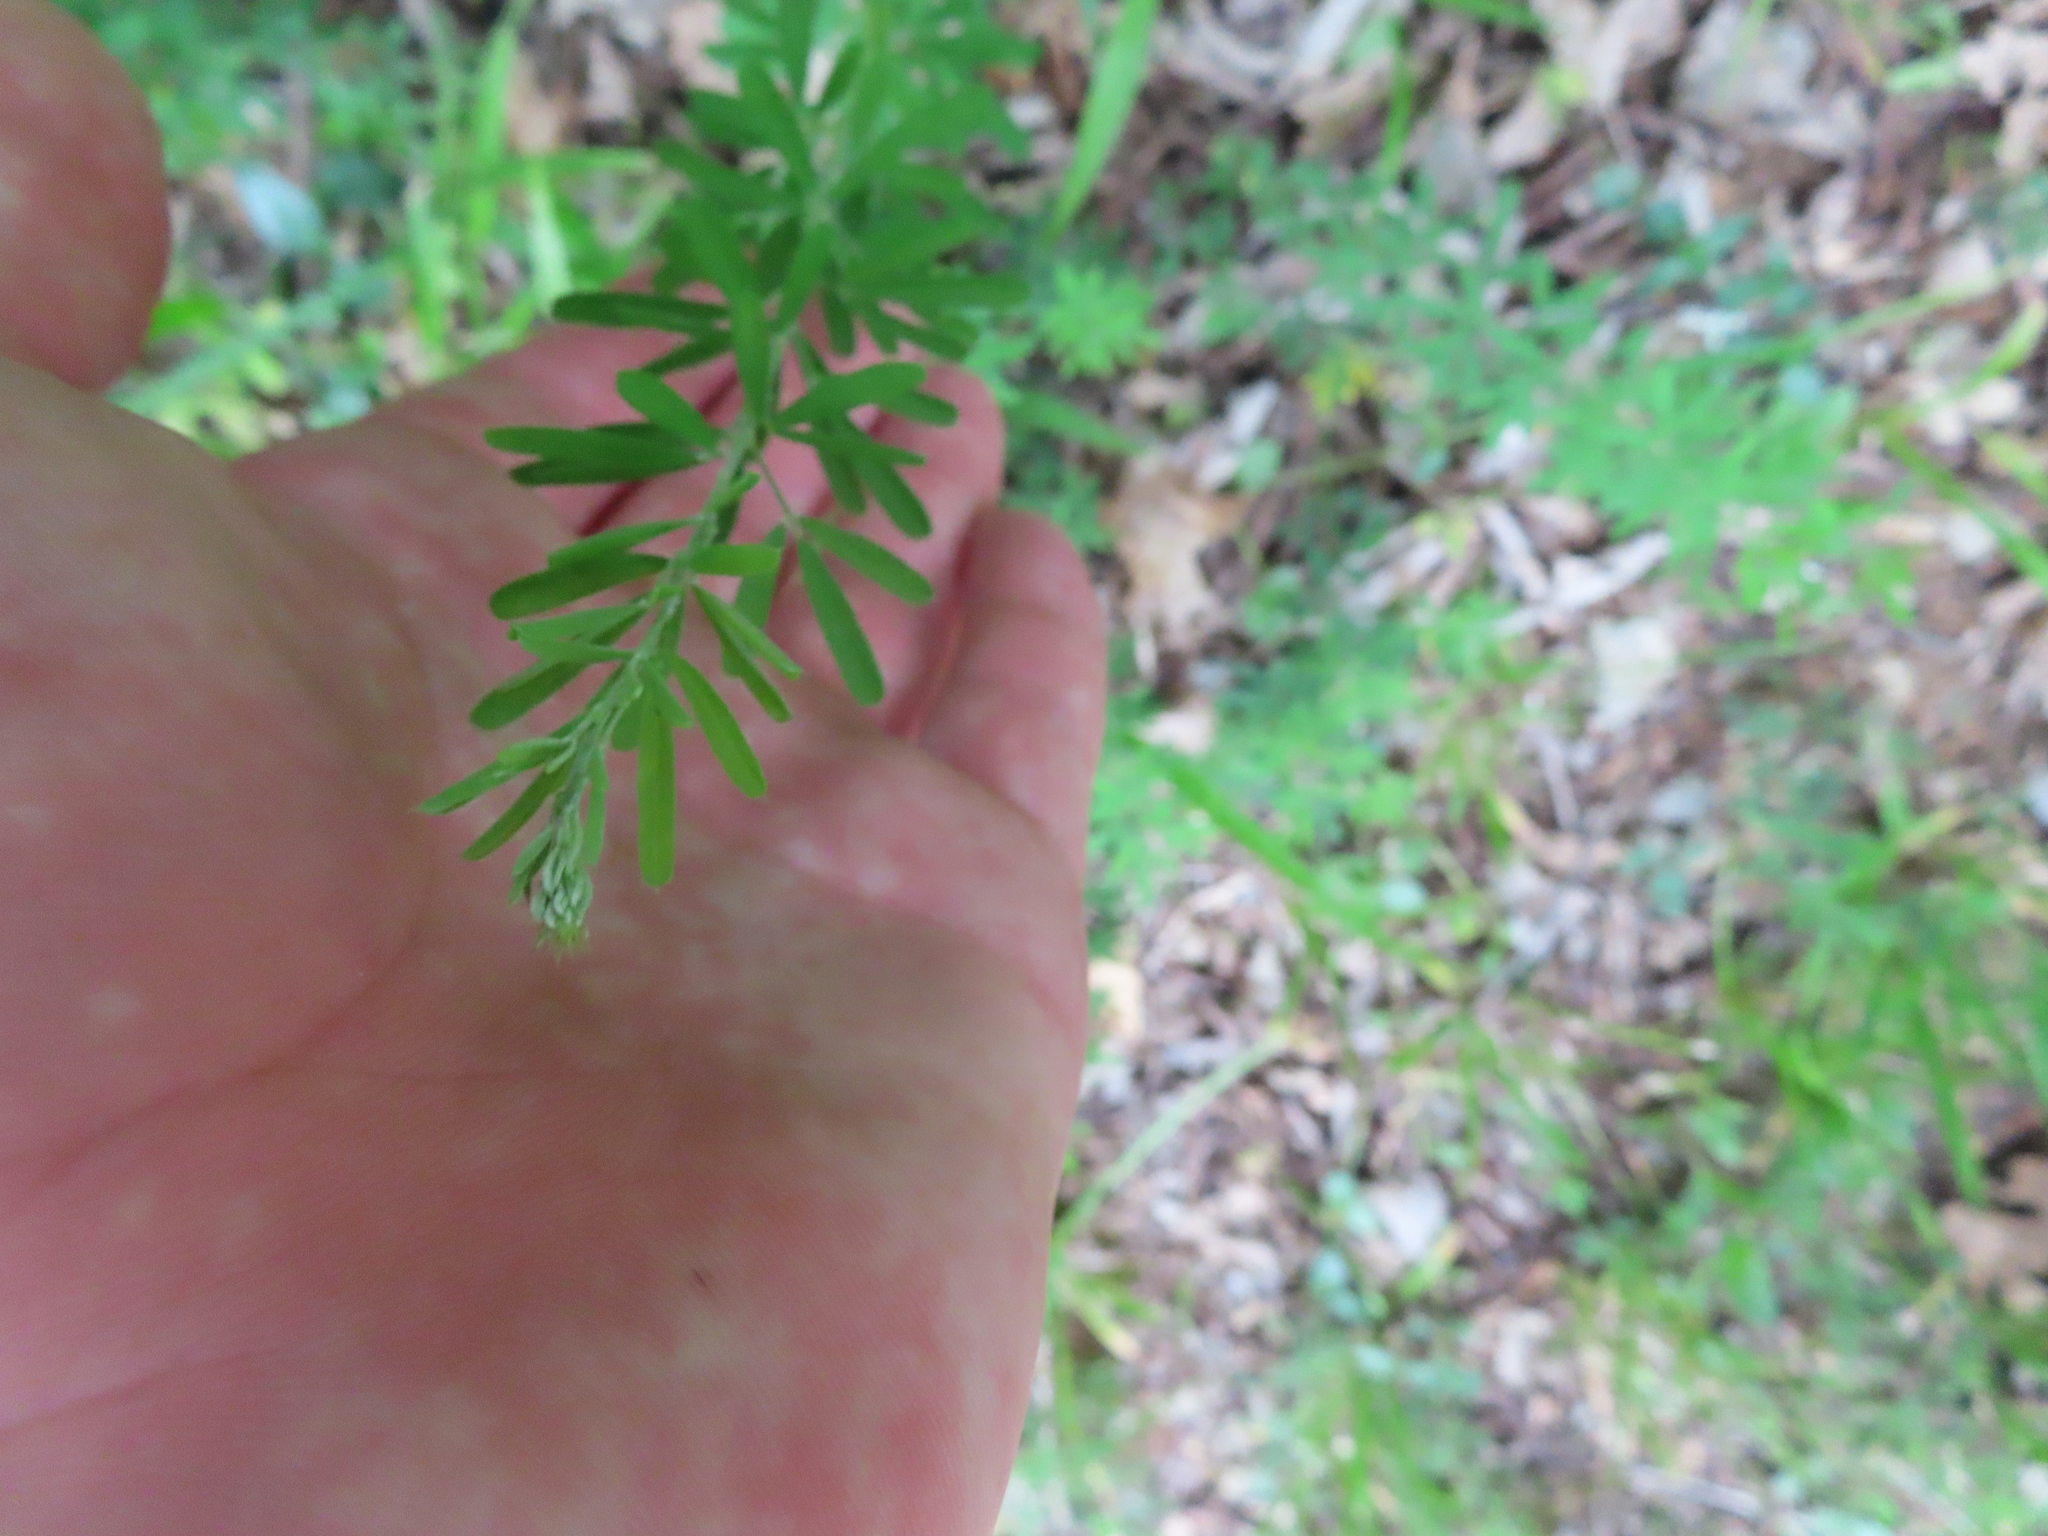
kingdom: Plantae
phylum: Tracheophyta
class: Magnoliopsida
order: Fabales
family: Fabaceae
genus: Lespedeza
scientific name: Lespedeza cuneata
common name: Chinese bush-clover
